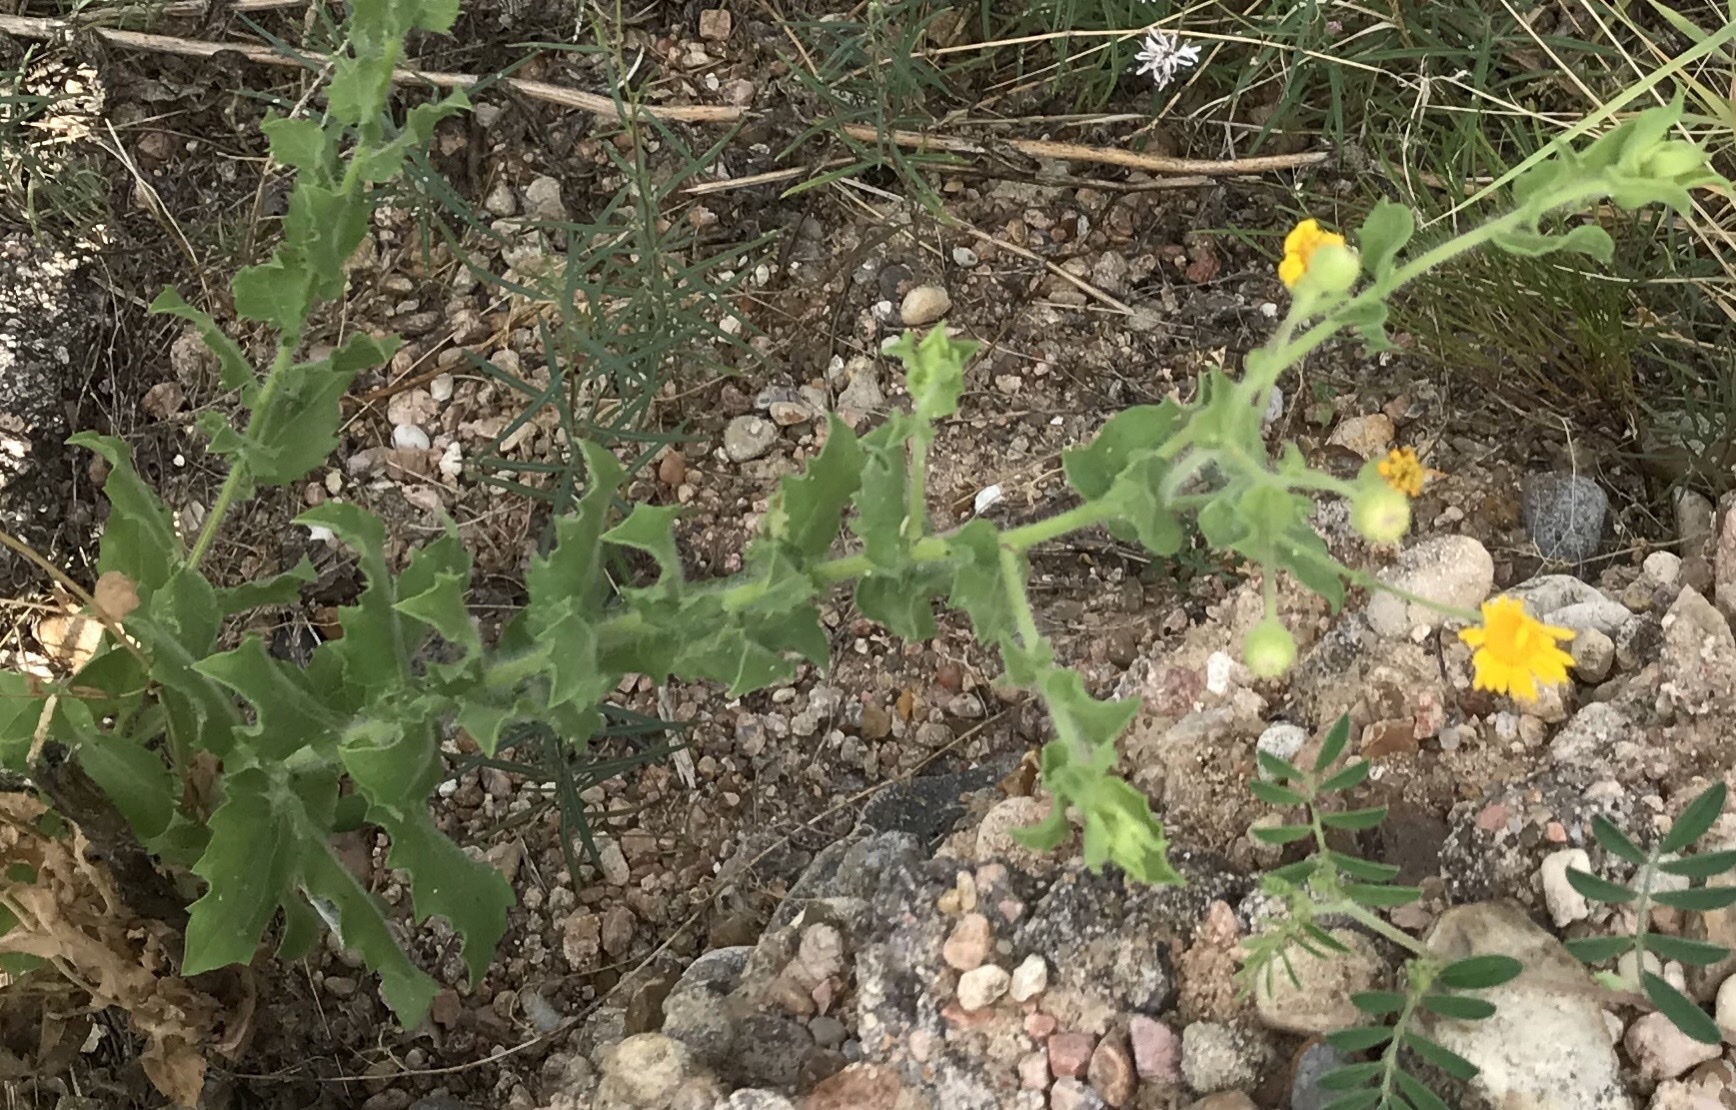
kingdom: Plantae
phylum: Tracheophyta
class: Magnoliopsida
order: Asterales
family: Asteraceae
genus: Heterotheca
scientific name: Heterotheca subaxillaris
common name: Camphorweed
